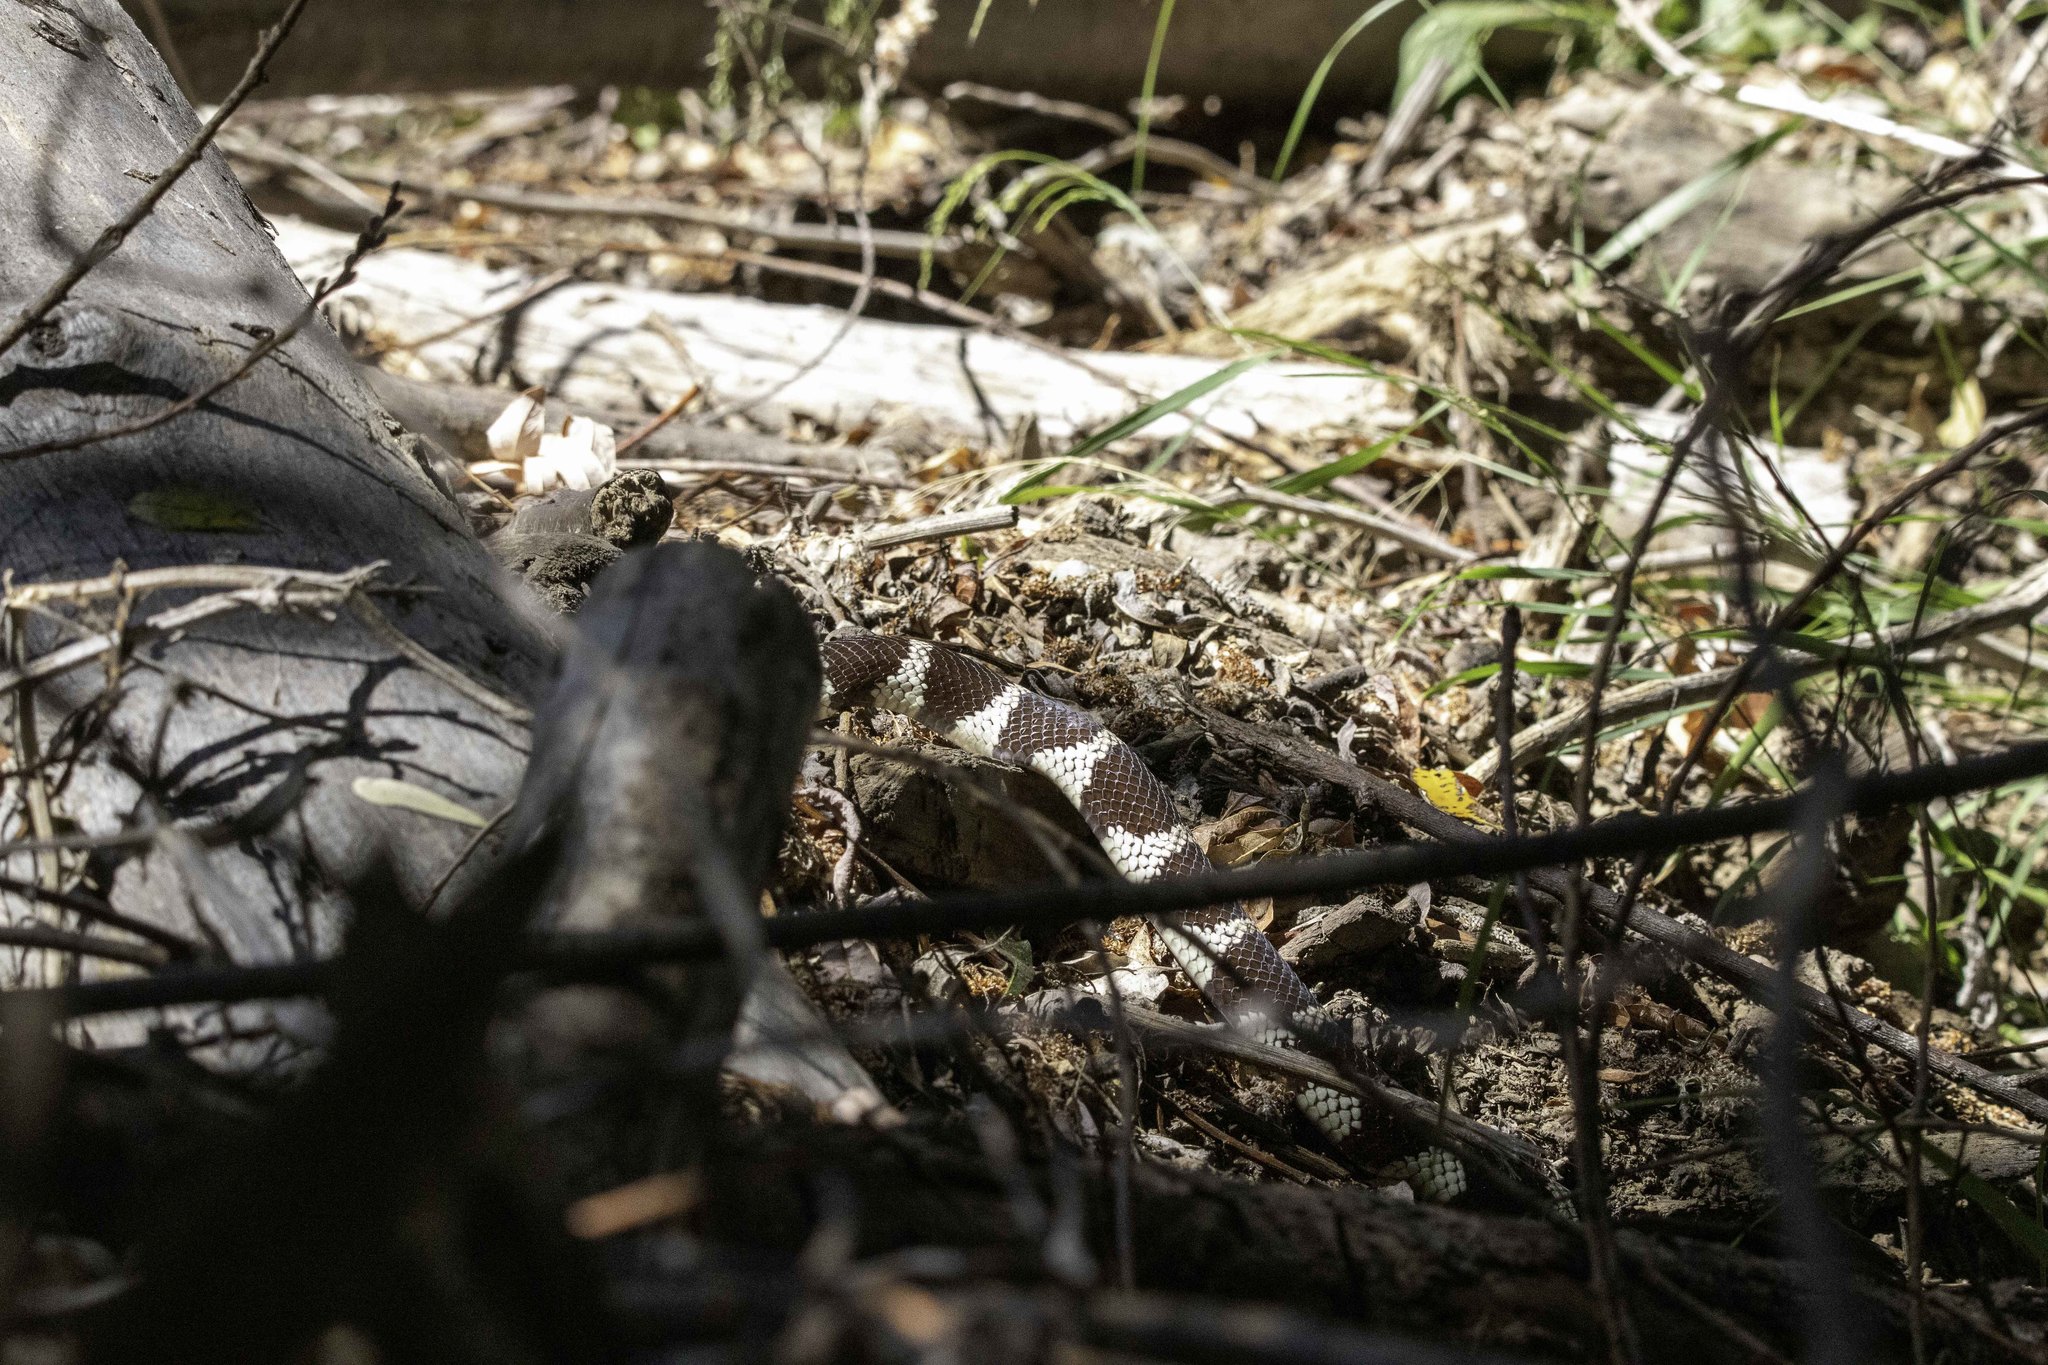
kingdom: Animalia
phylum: Chordata
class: Squamata
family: Colubridae
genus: Lampropeltis
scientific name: Lampropeltis californiae
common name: California kingsnake
